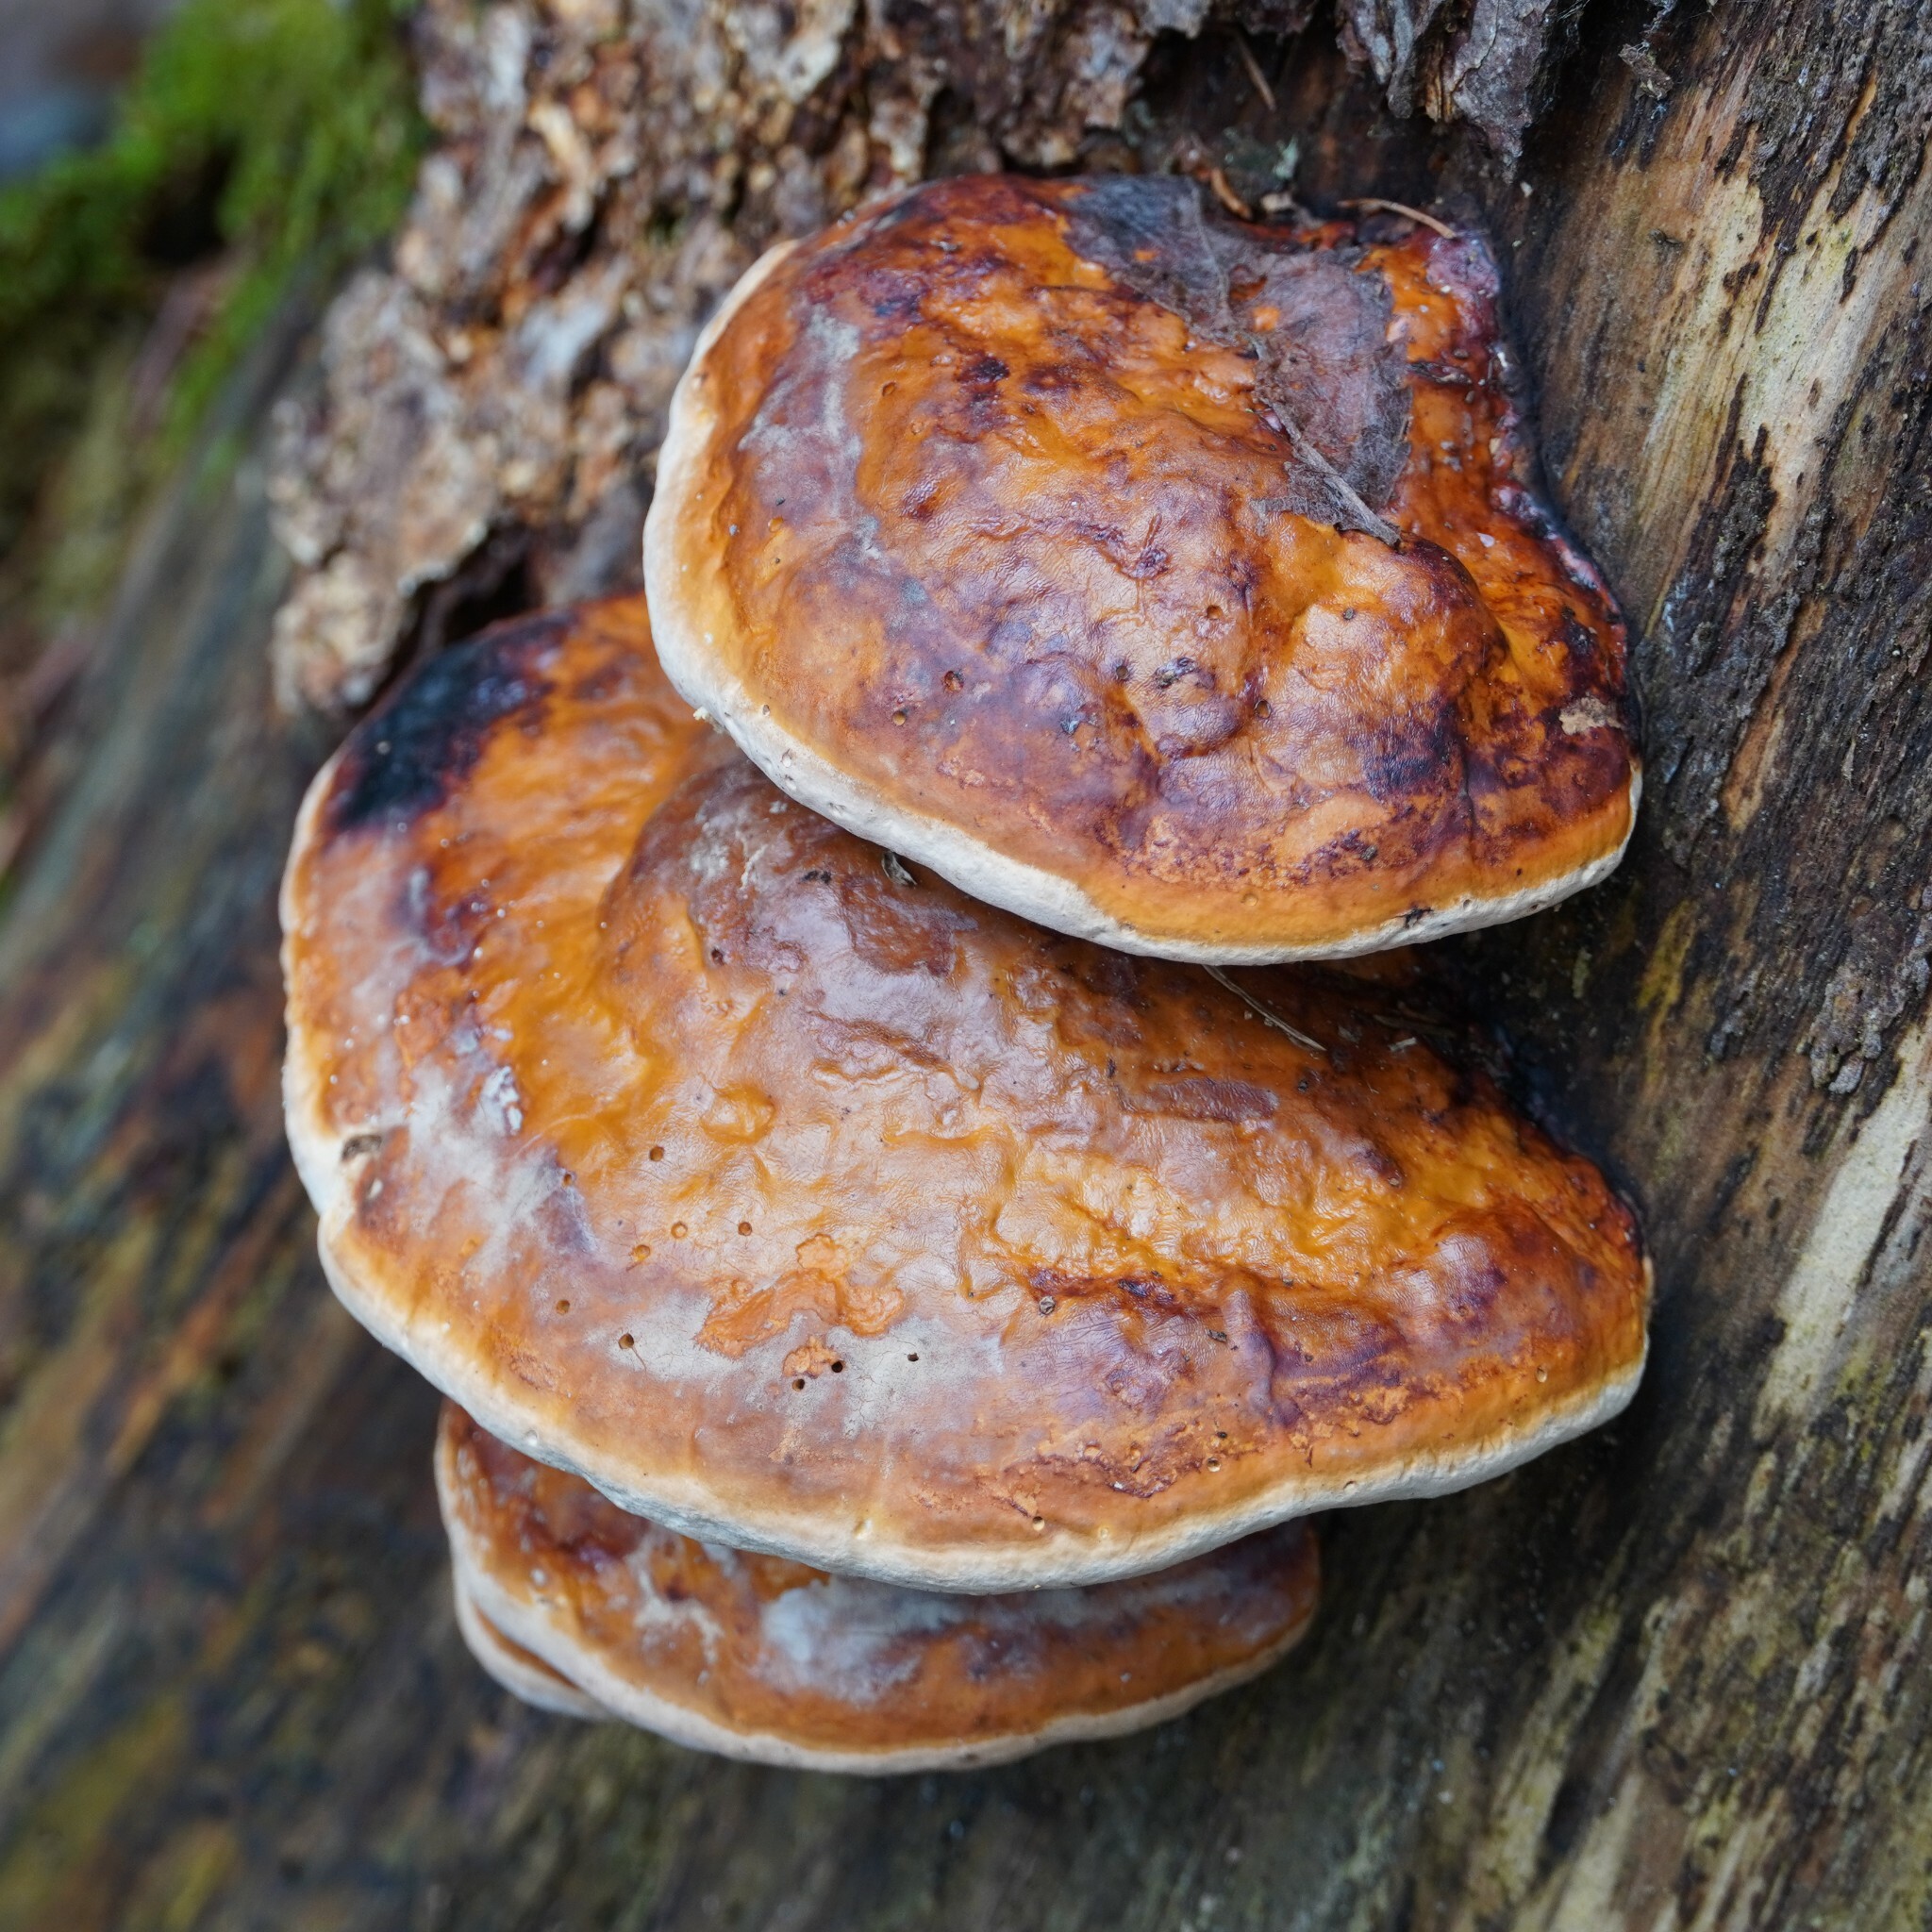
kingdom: Fungi
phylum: Basidiomycota
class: Agaricomycetes
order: Polyporales
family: Fomitopsidaceae
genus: Fomitopsis
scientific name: Fomitopsis pinicola
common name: Red-belted bracket
